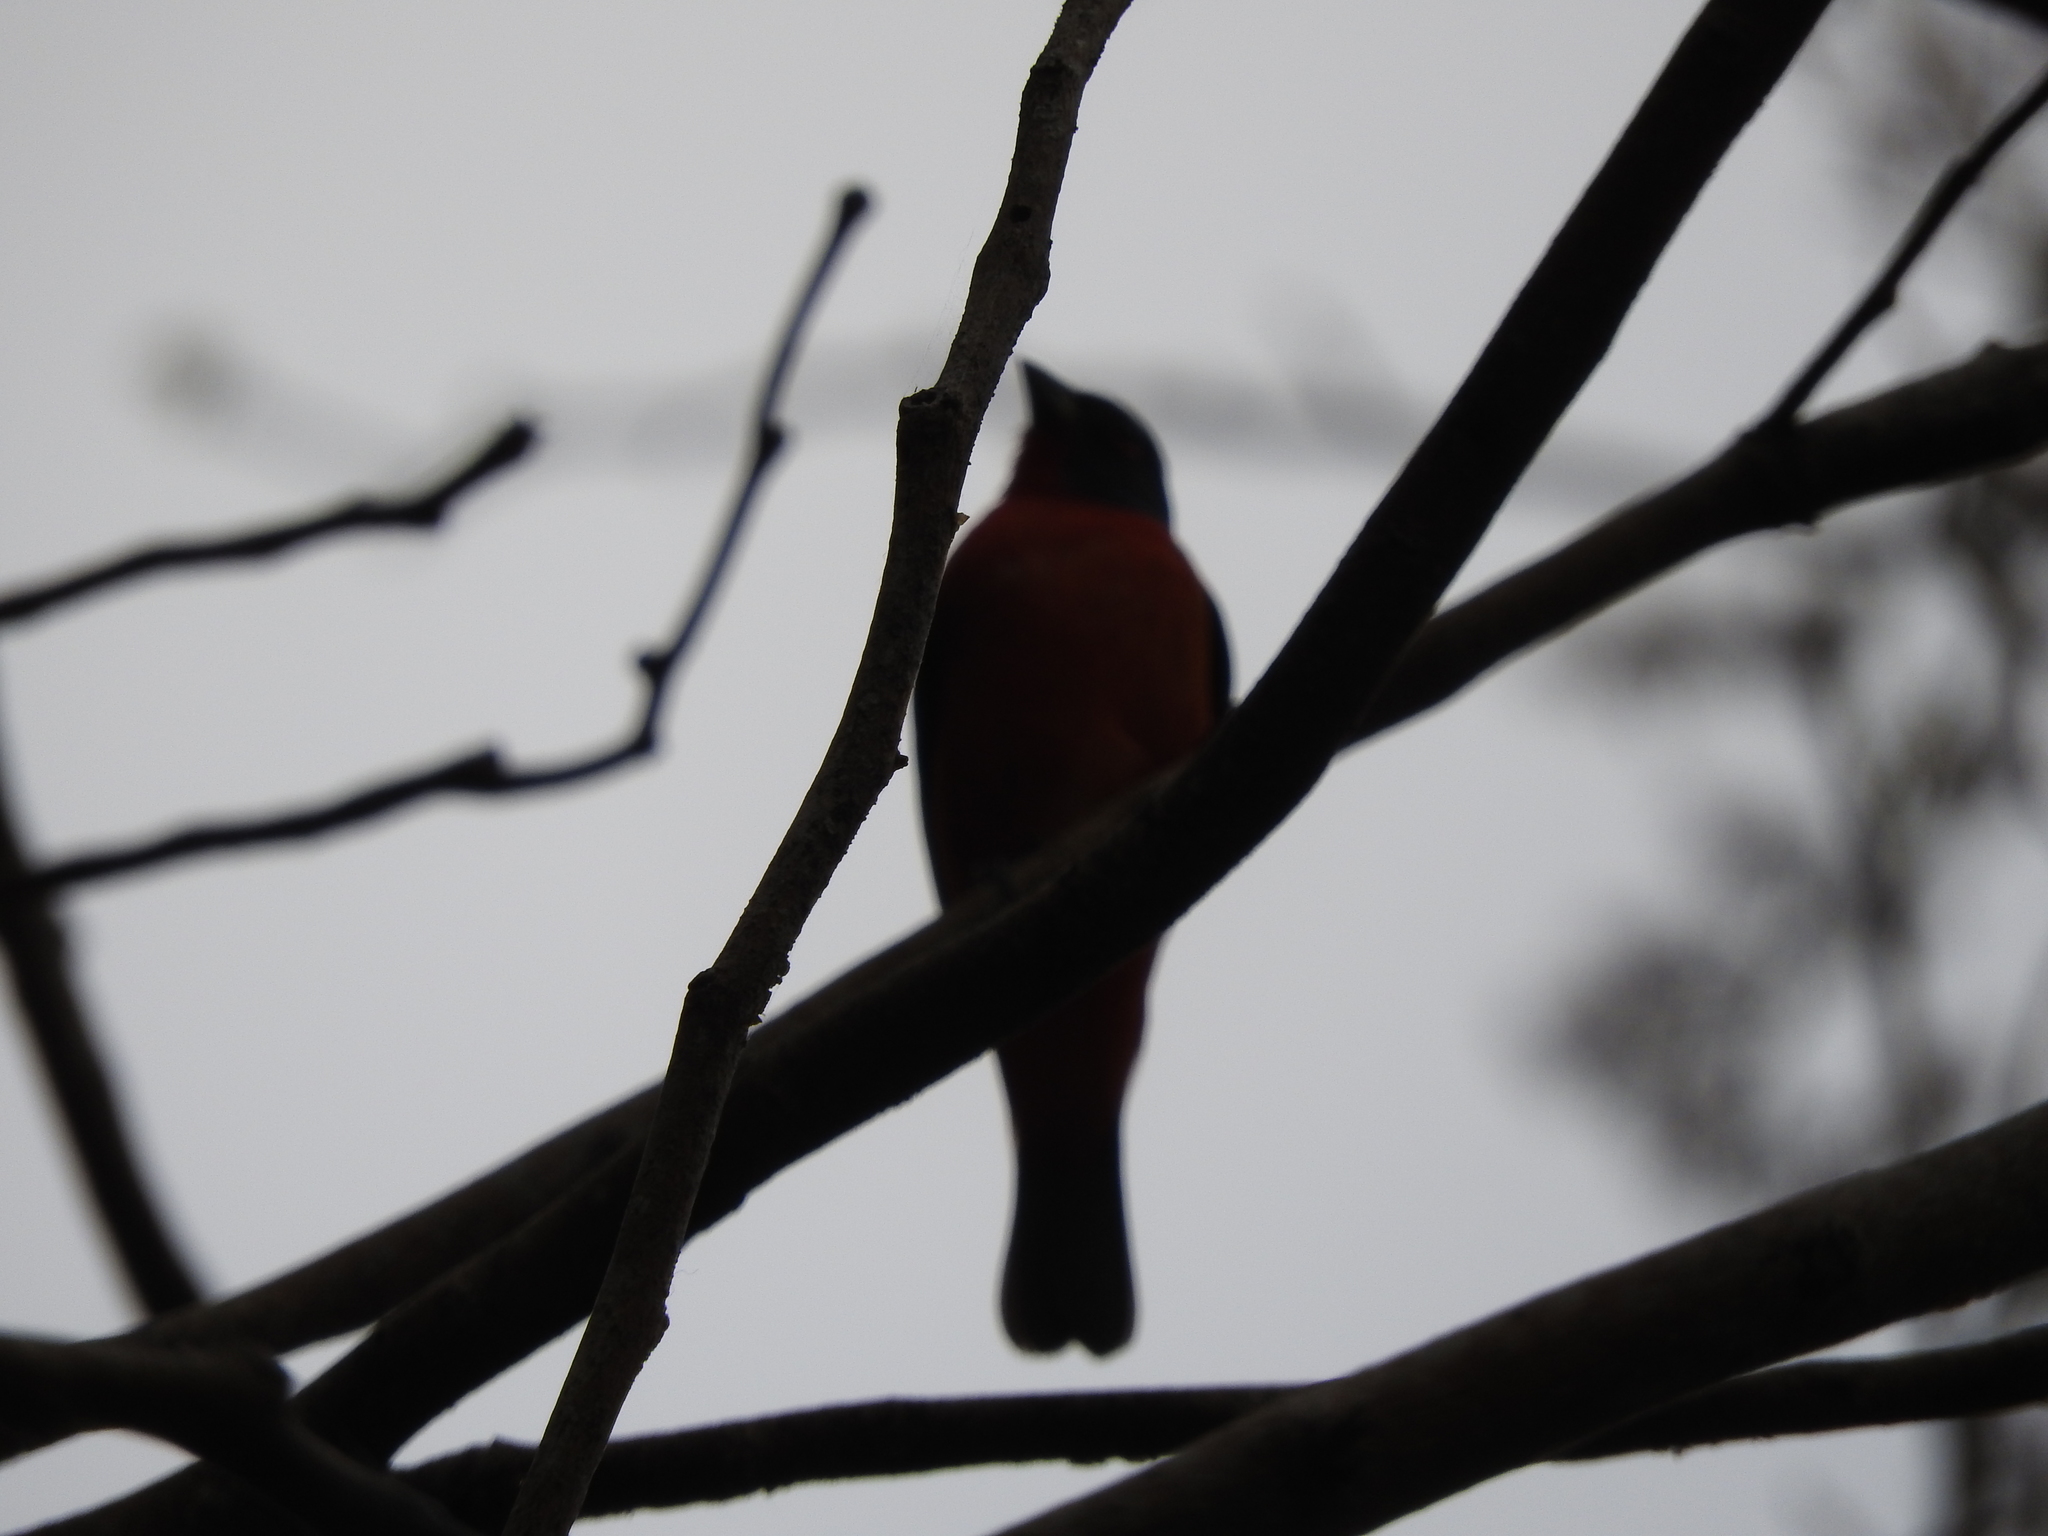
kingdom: Animalia
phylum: Chordata
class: Aves
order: Passeriformes
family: Cardinalidae
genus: Passerina
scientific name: Passerina ciris
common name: Painted bunting
